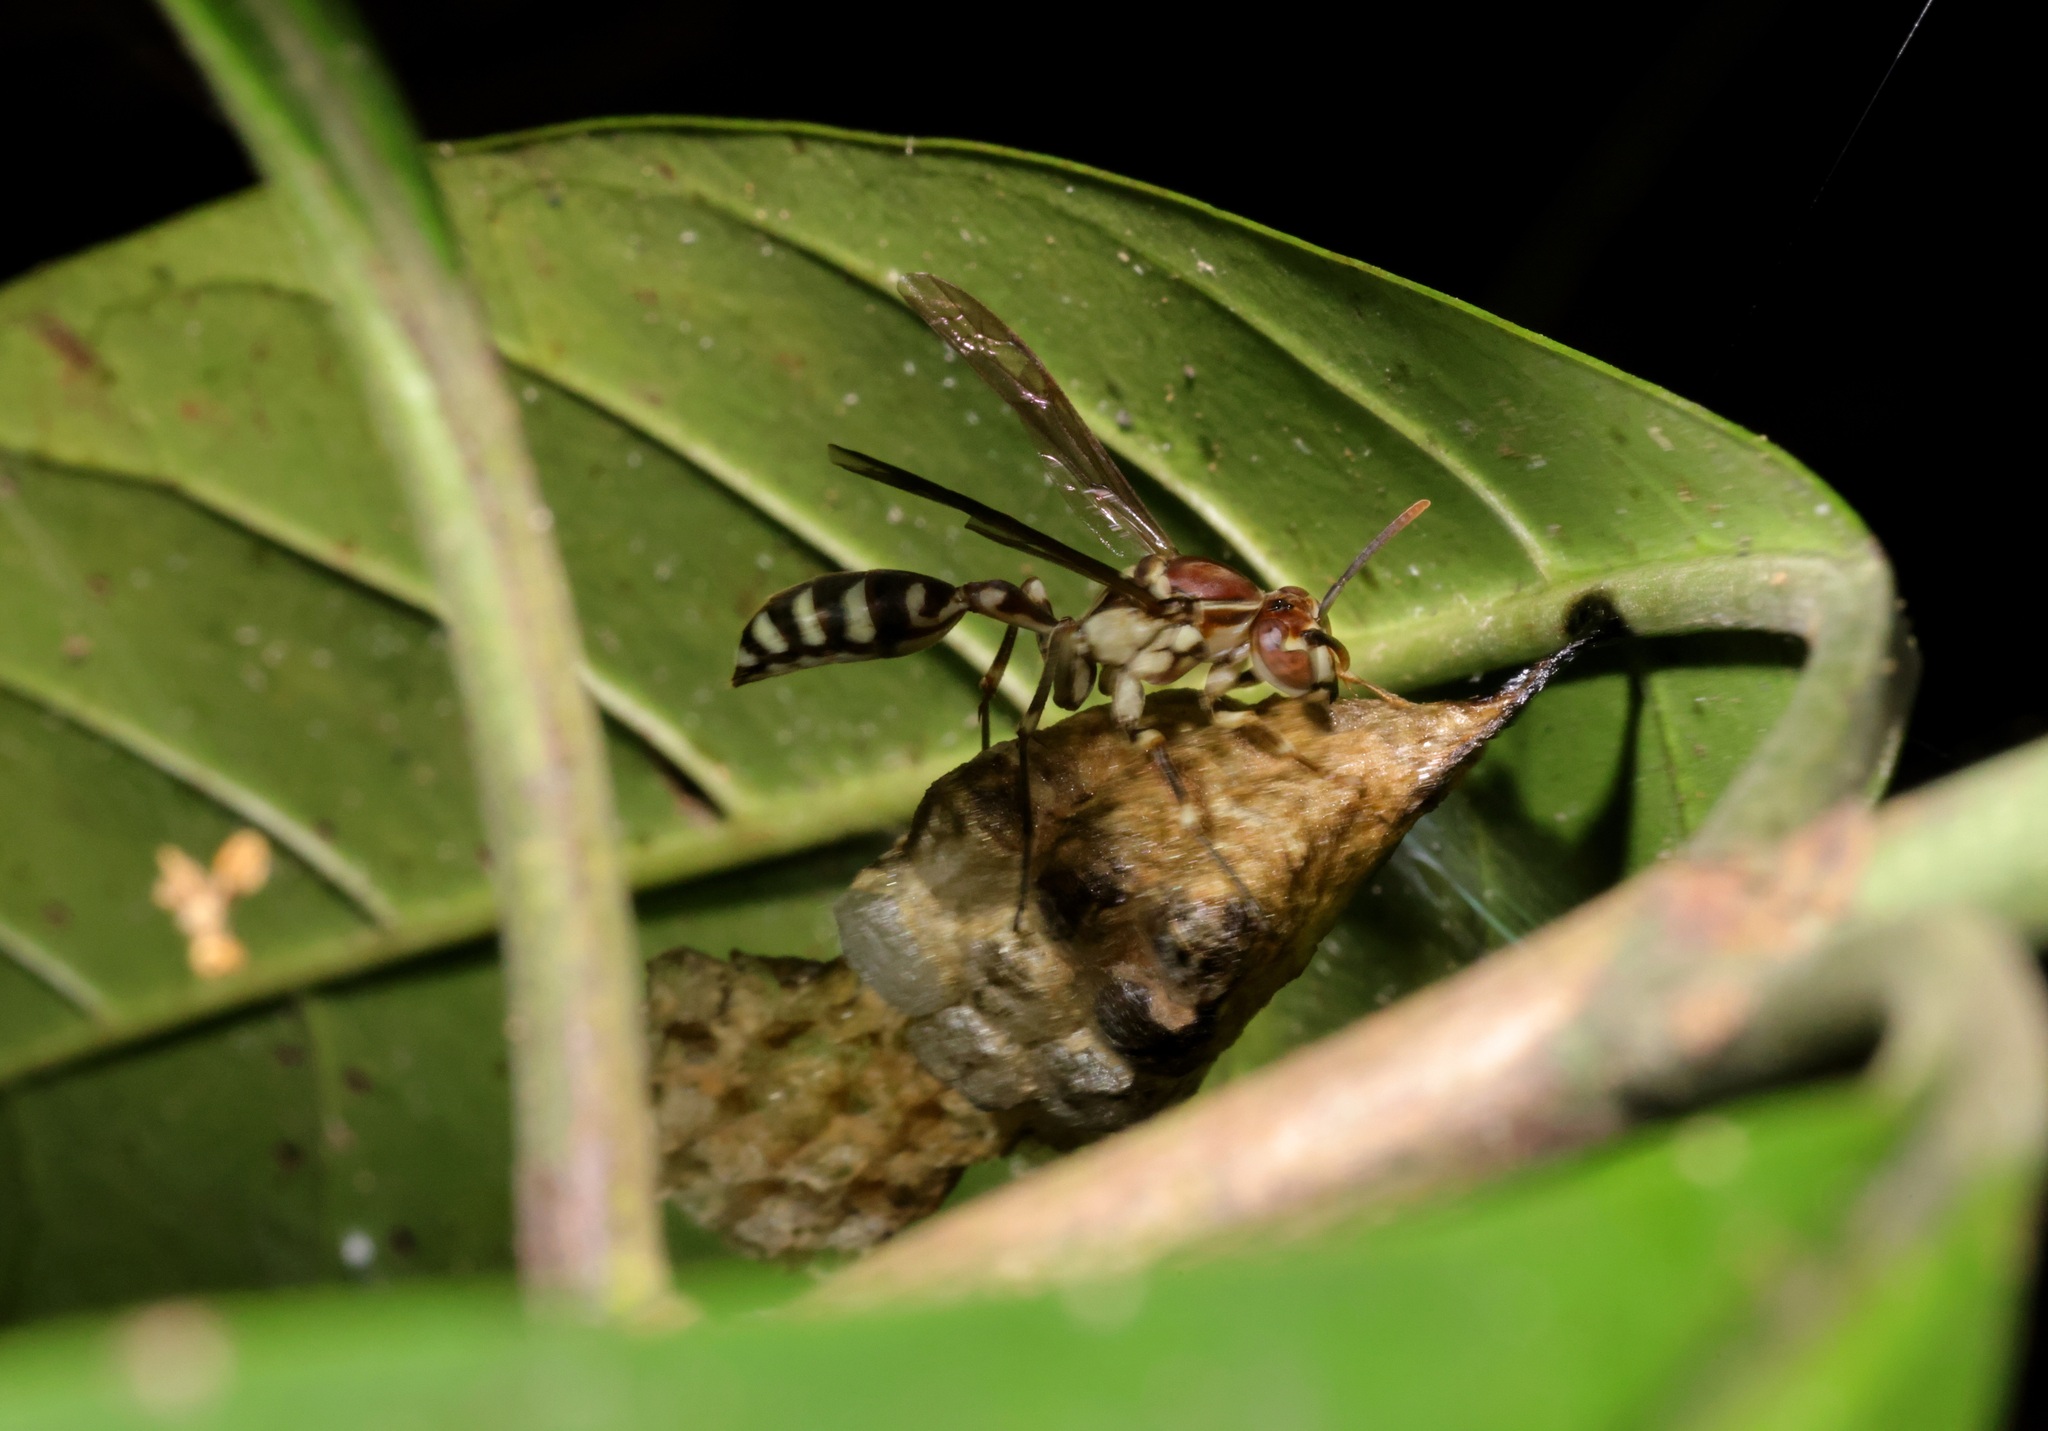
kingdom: Animalia
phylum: Arthropoda
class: Insecta
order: Hymenoptera
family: Vespidae
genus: Parapolybia
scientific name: Parapolybia nodosa
